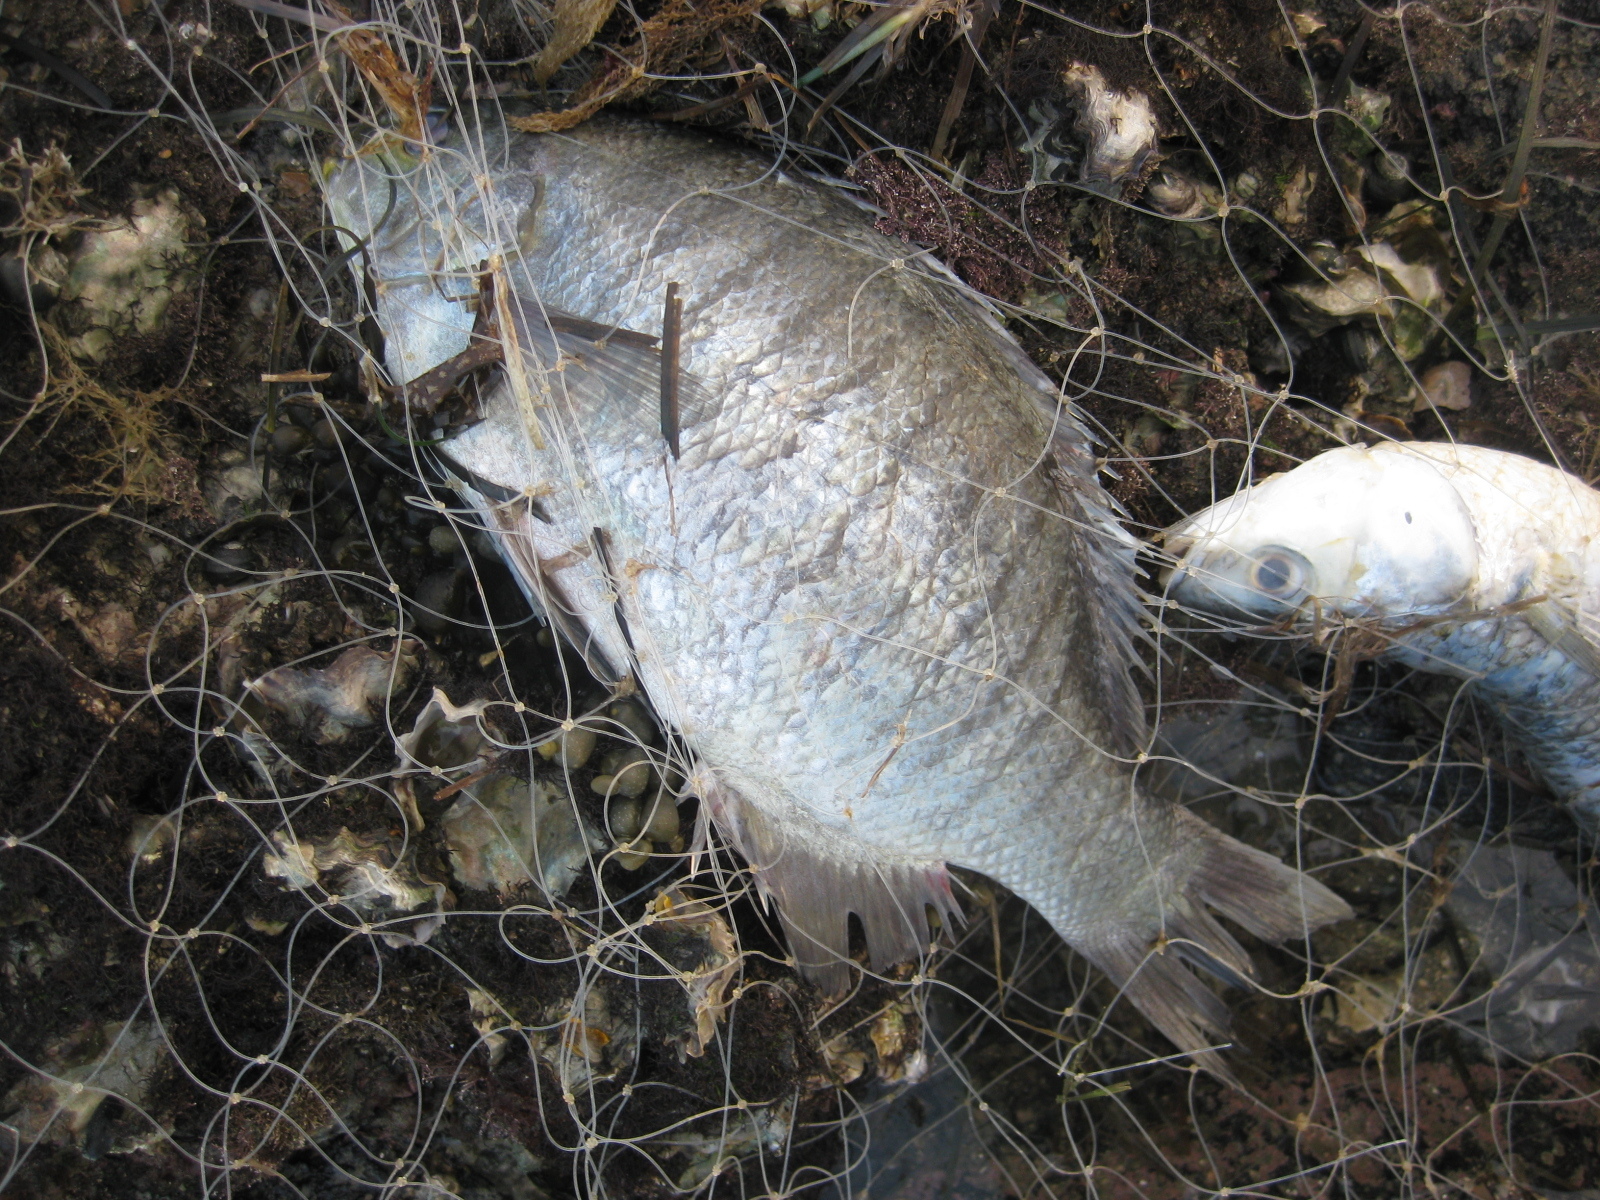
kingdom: Animalia
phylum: Chordata
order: Perciformes
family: Kyphosidae
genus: Girella
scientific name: Girella tricuspidata
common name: Parore
